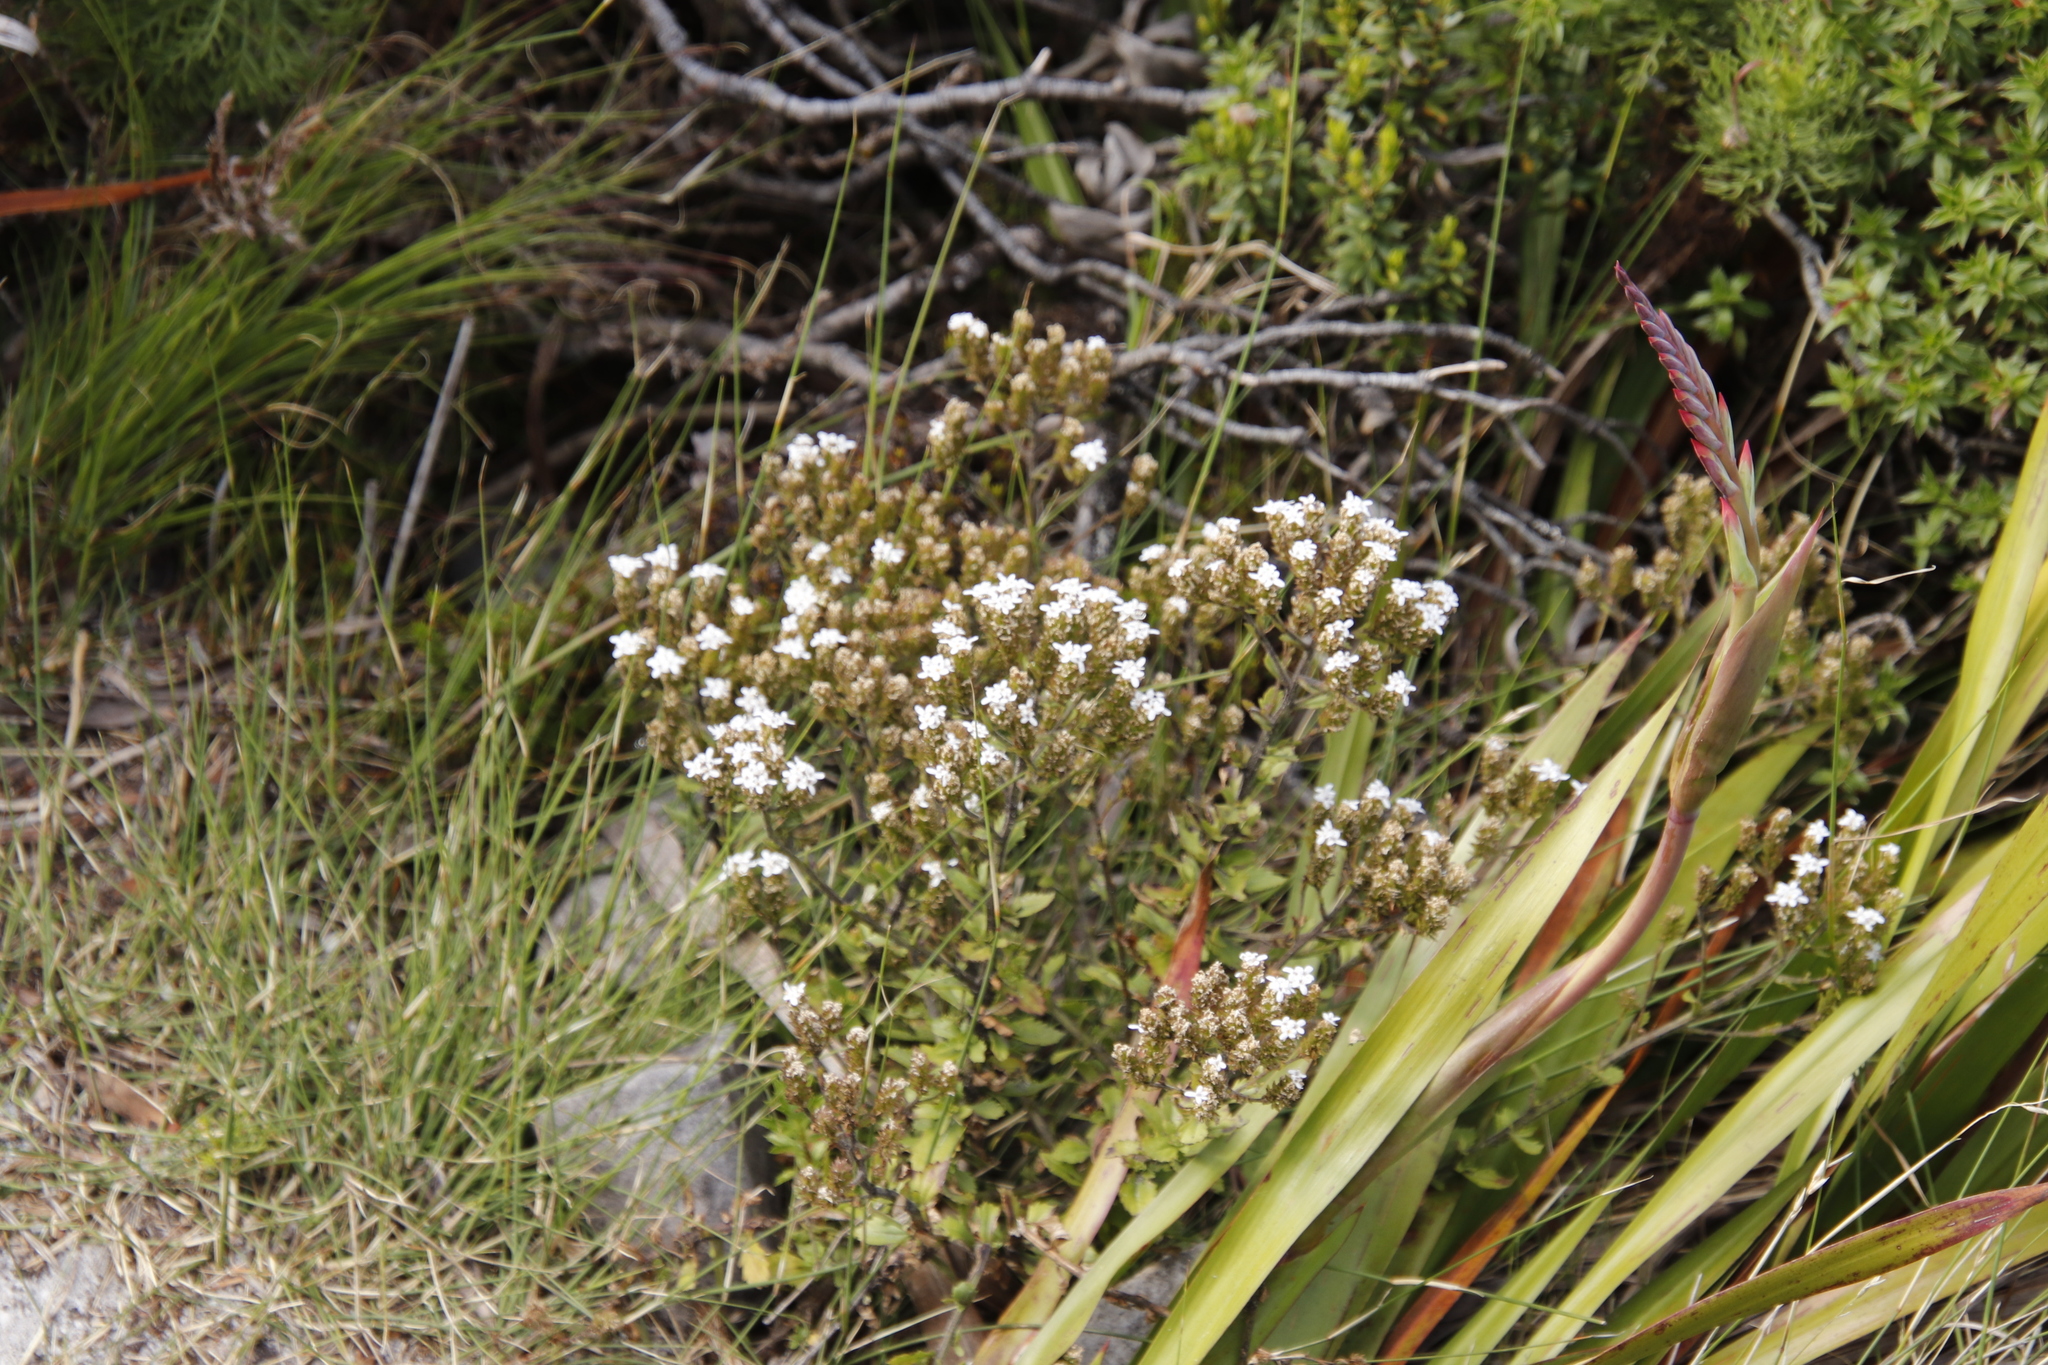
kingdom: Plantae
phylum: Tracheophyta
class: Magnoliopsida
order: Lamiales
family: Scrophulariaceae
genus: Pseudoselago
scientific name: Pseudoselago peninsulae
